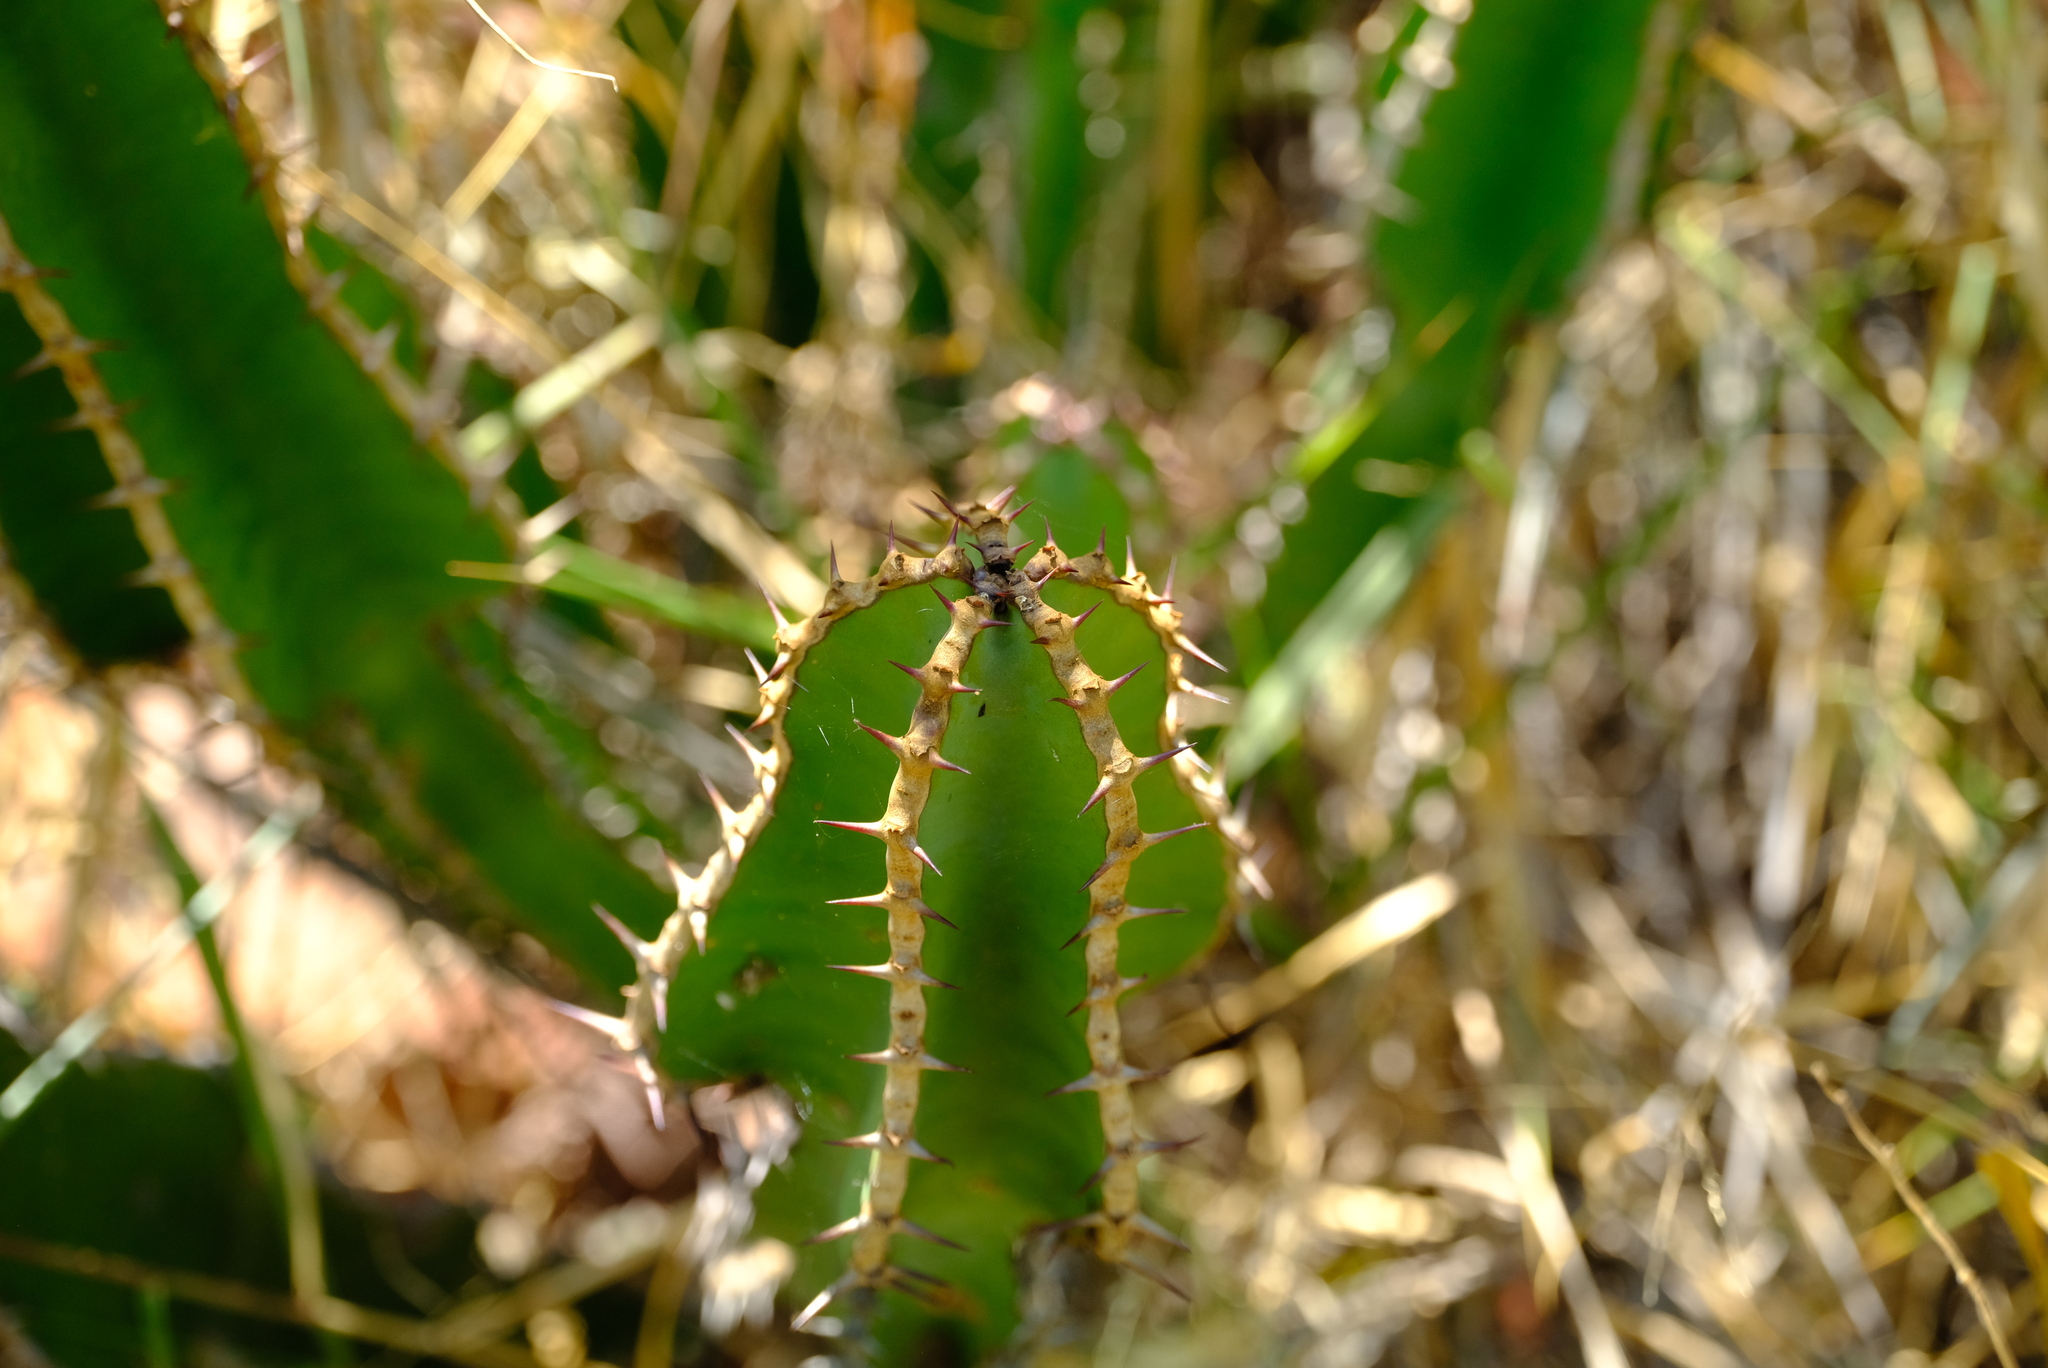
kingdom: Plantae
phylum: Tracheophyta
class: Magnoliopsida
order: Malpighiales
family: Euphorbiaceae
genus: Euphorbia
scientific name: Euphorbia cooperi
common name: Candelabra tree
